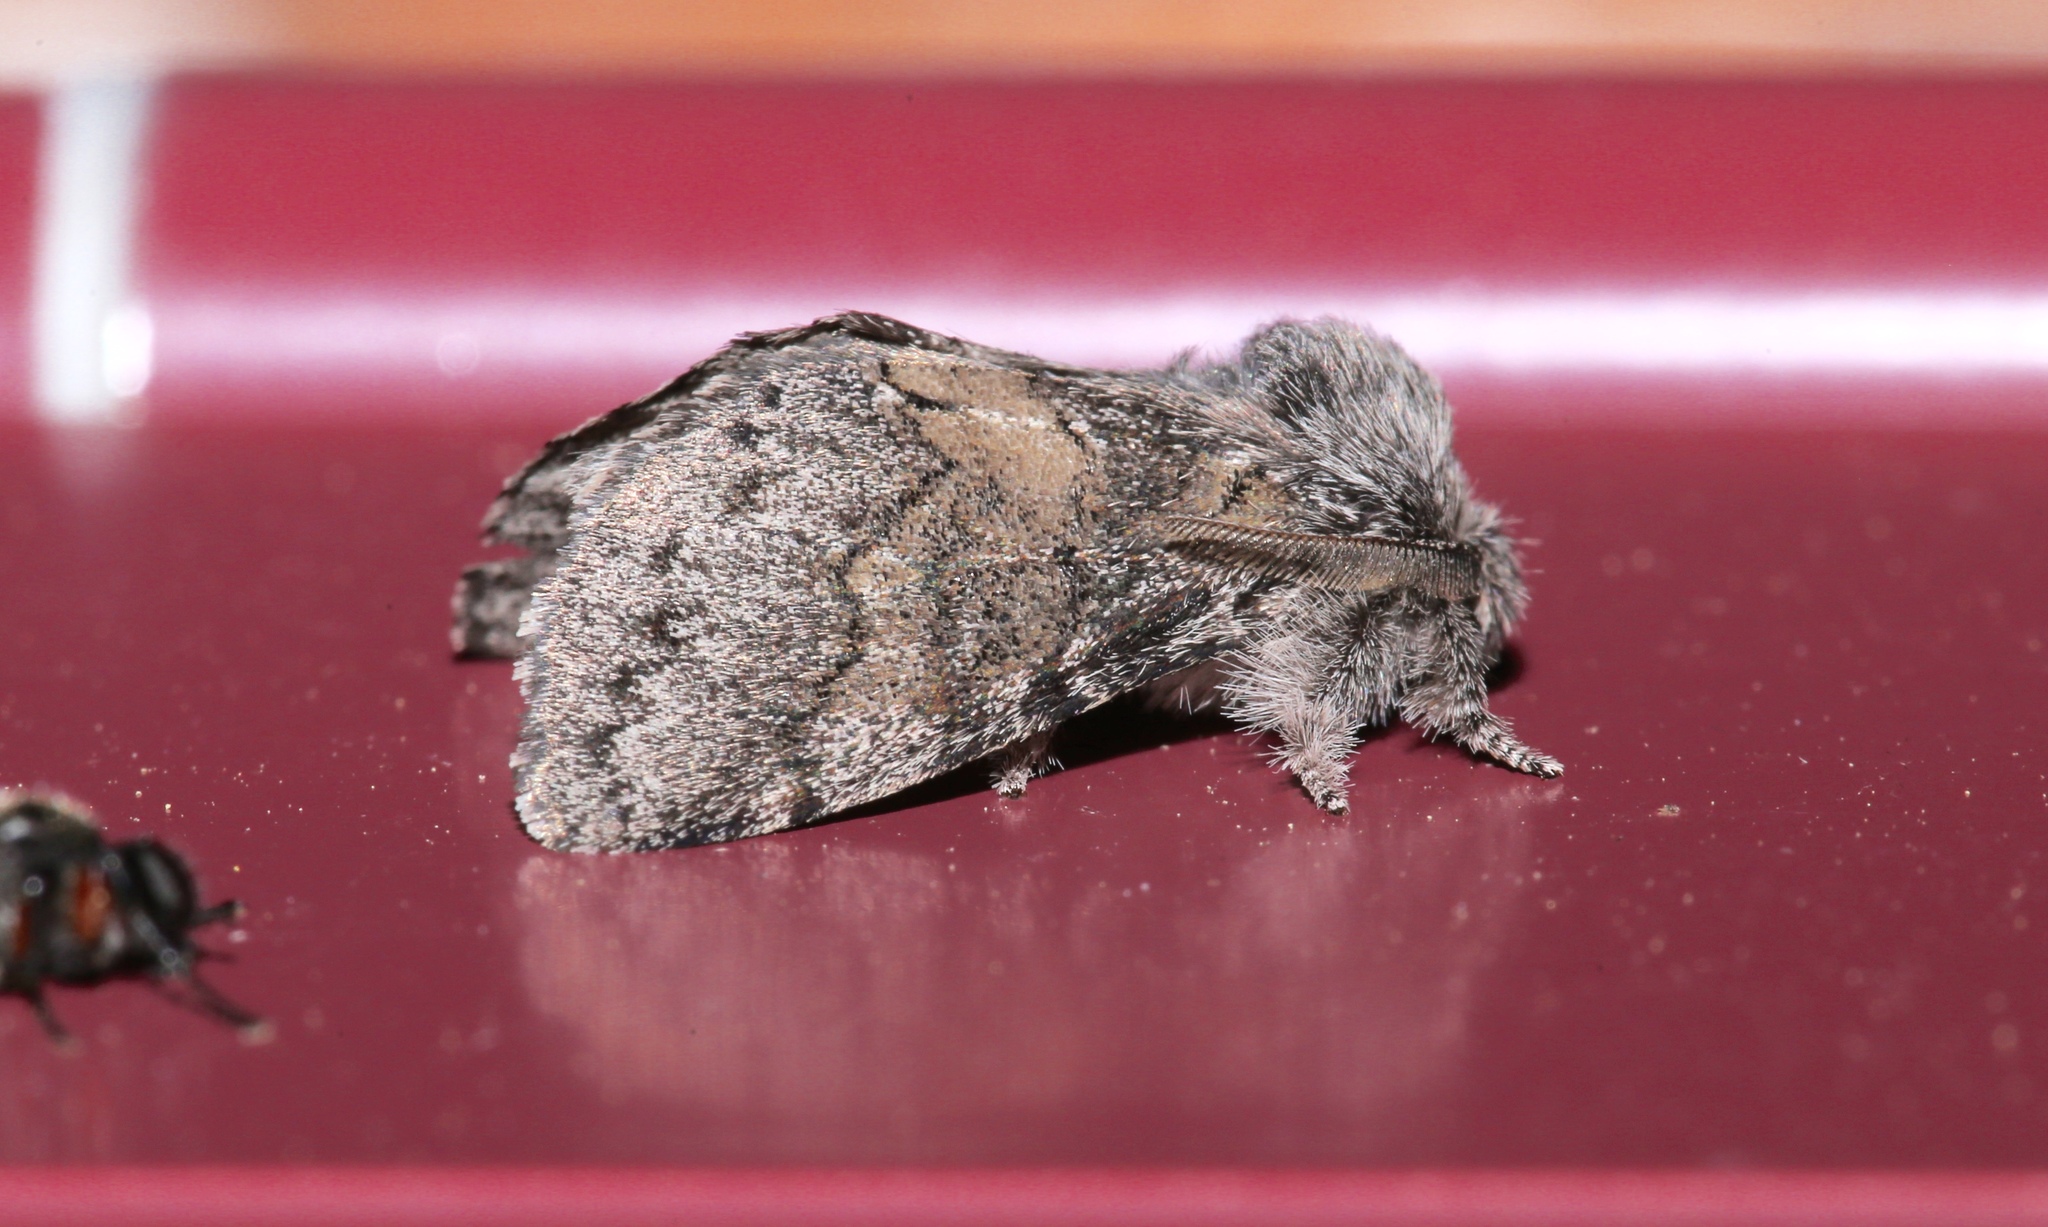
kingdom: Animalia
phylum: Arthropoda
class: Insecta
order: Lepidoptera
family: Notodontidae
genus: Gluphisia
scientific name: Gluphisia septentrionis
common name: Common gluphisia
